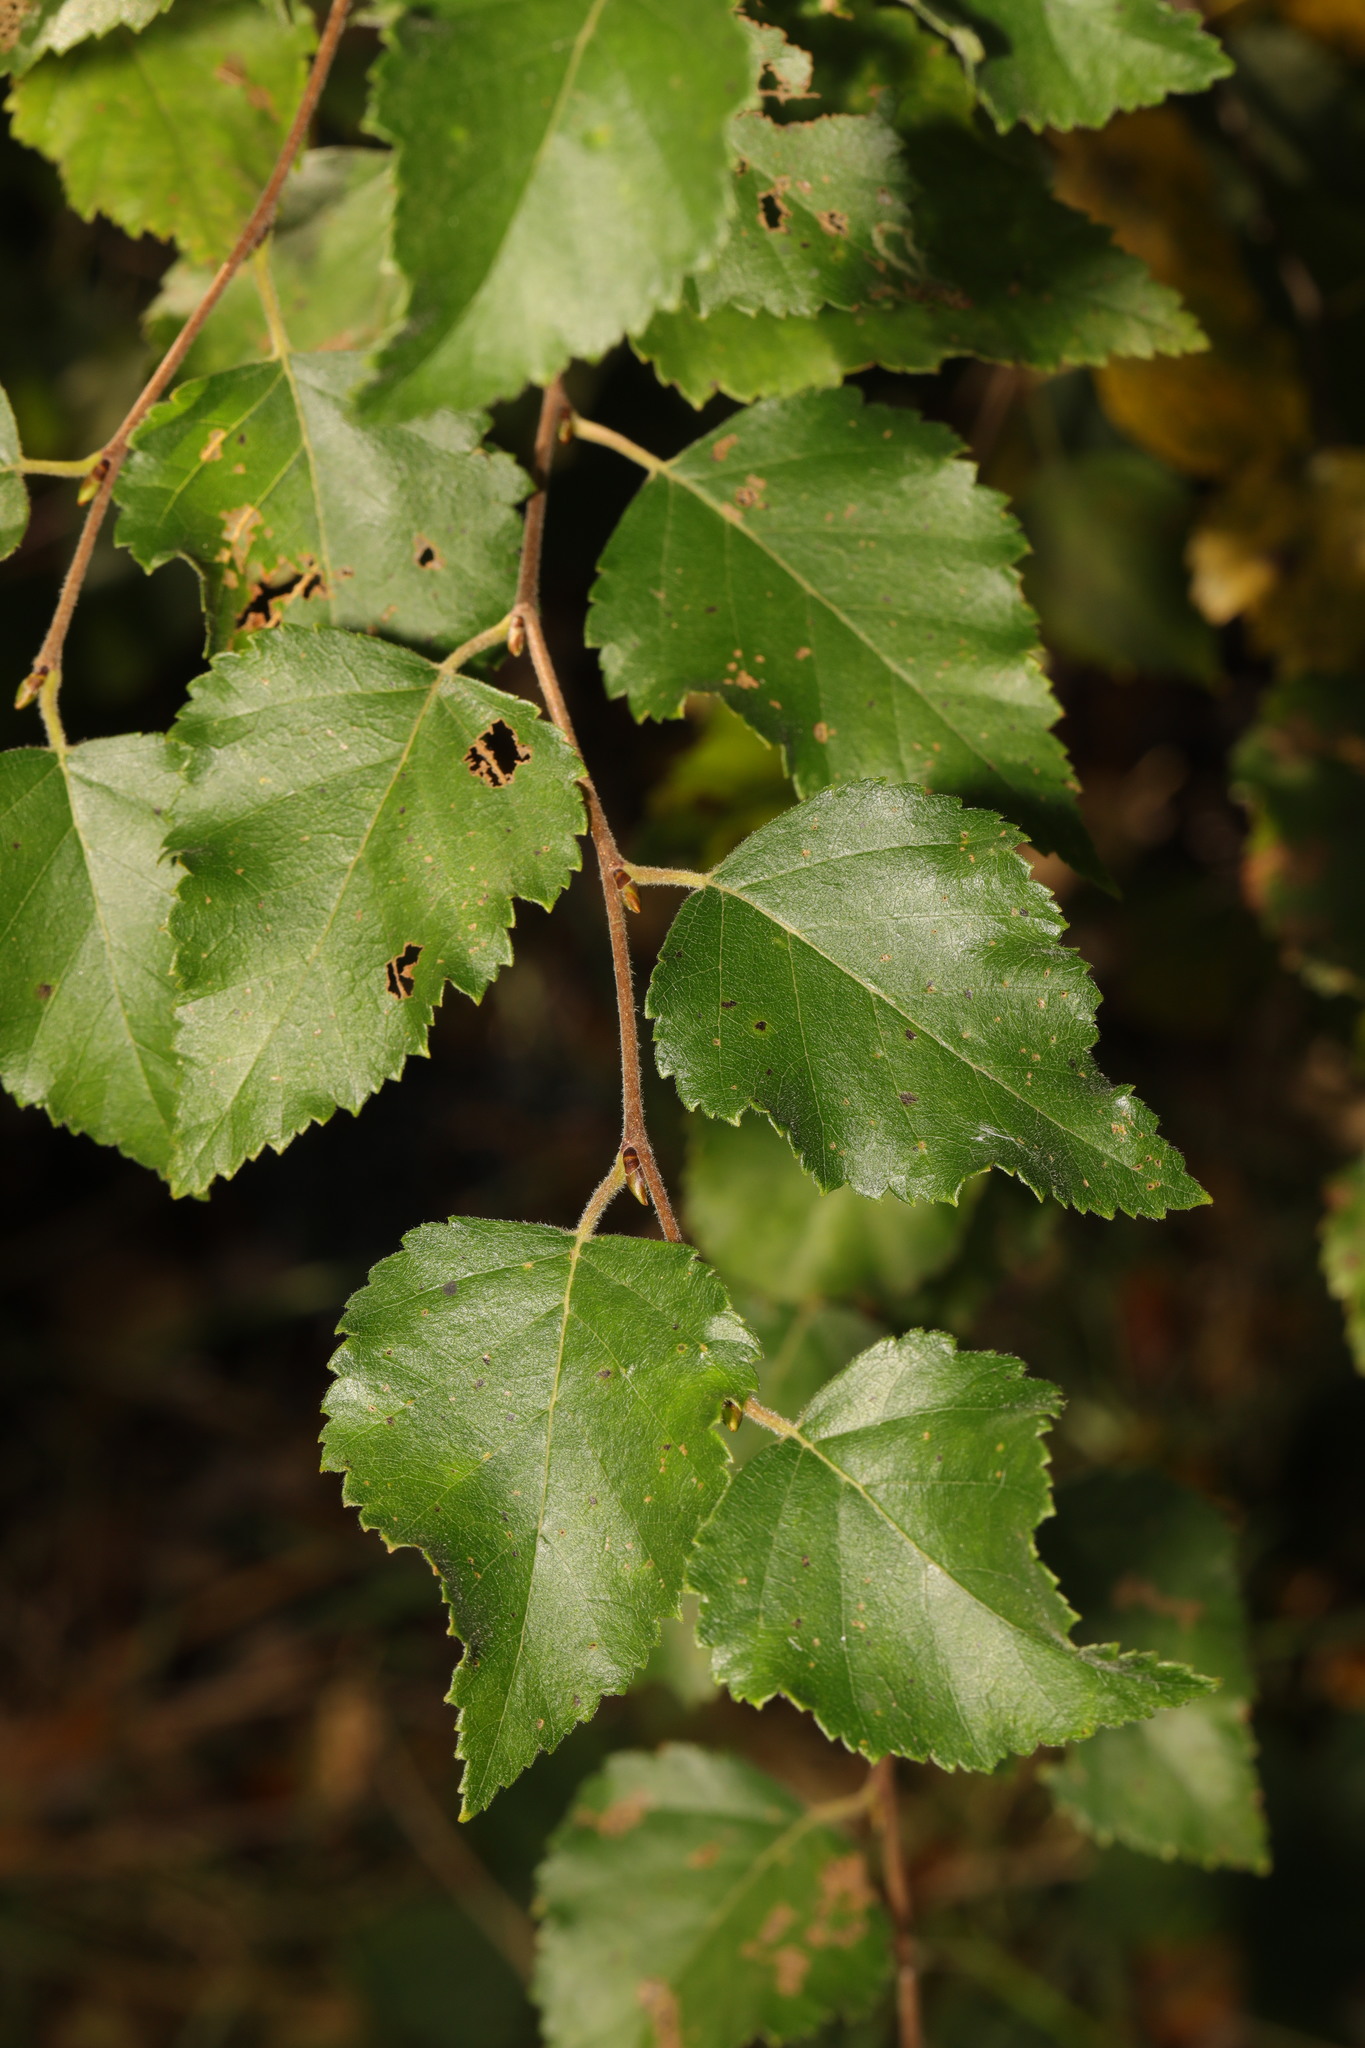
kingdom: Plantae
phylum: Tracheophyta
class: Magnoliopsida
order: Fagales
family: Betulaceae
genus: Betula
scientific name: Betula pendula
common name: Silver birch
